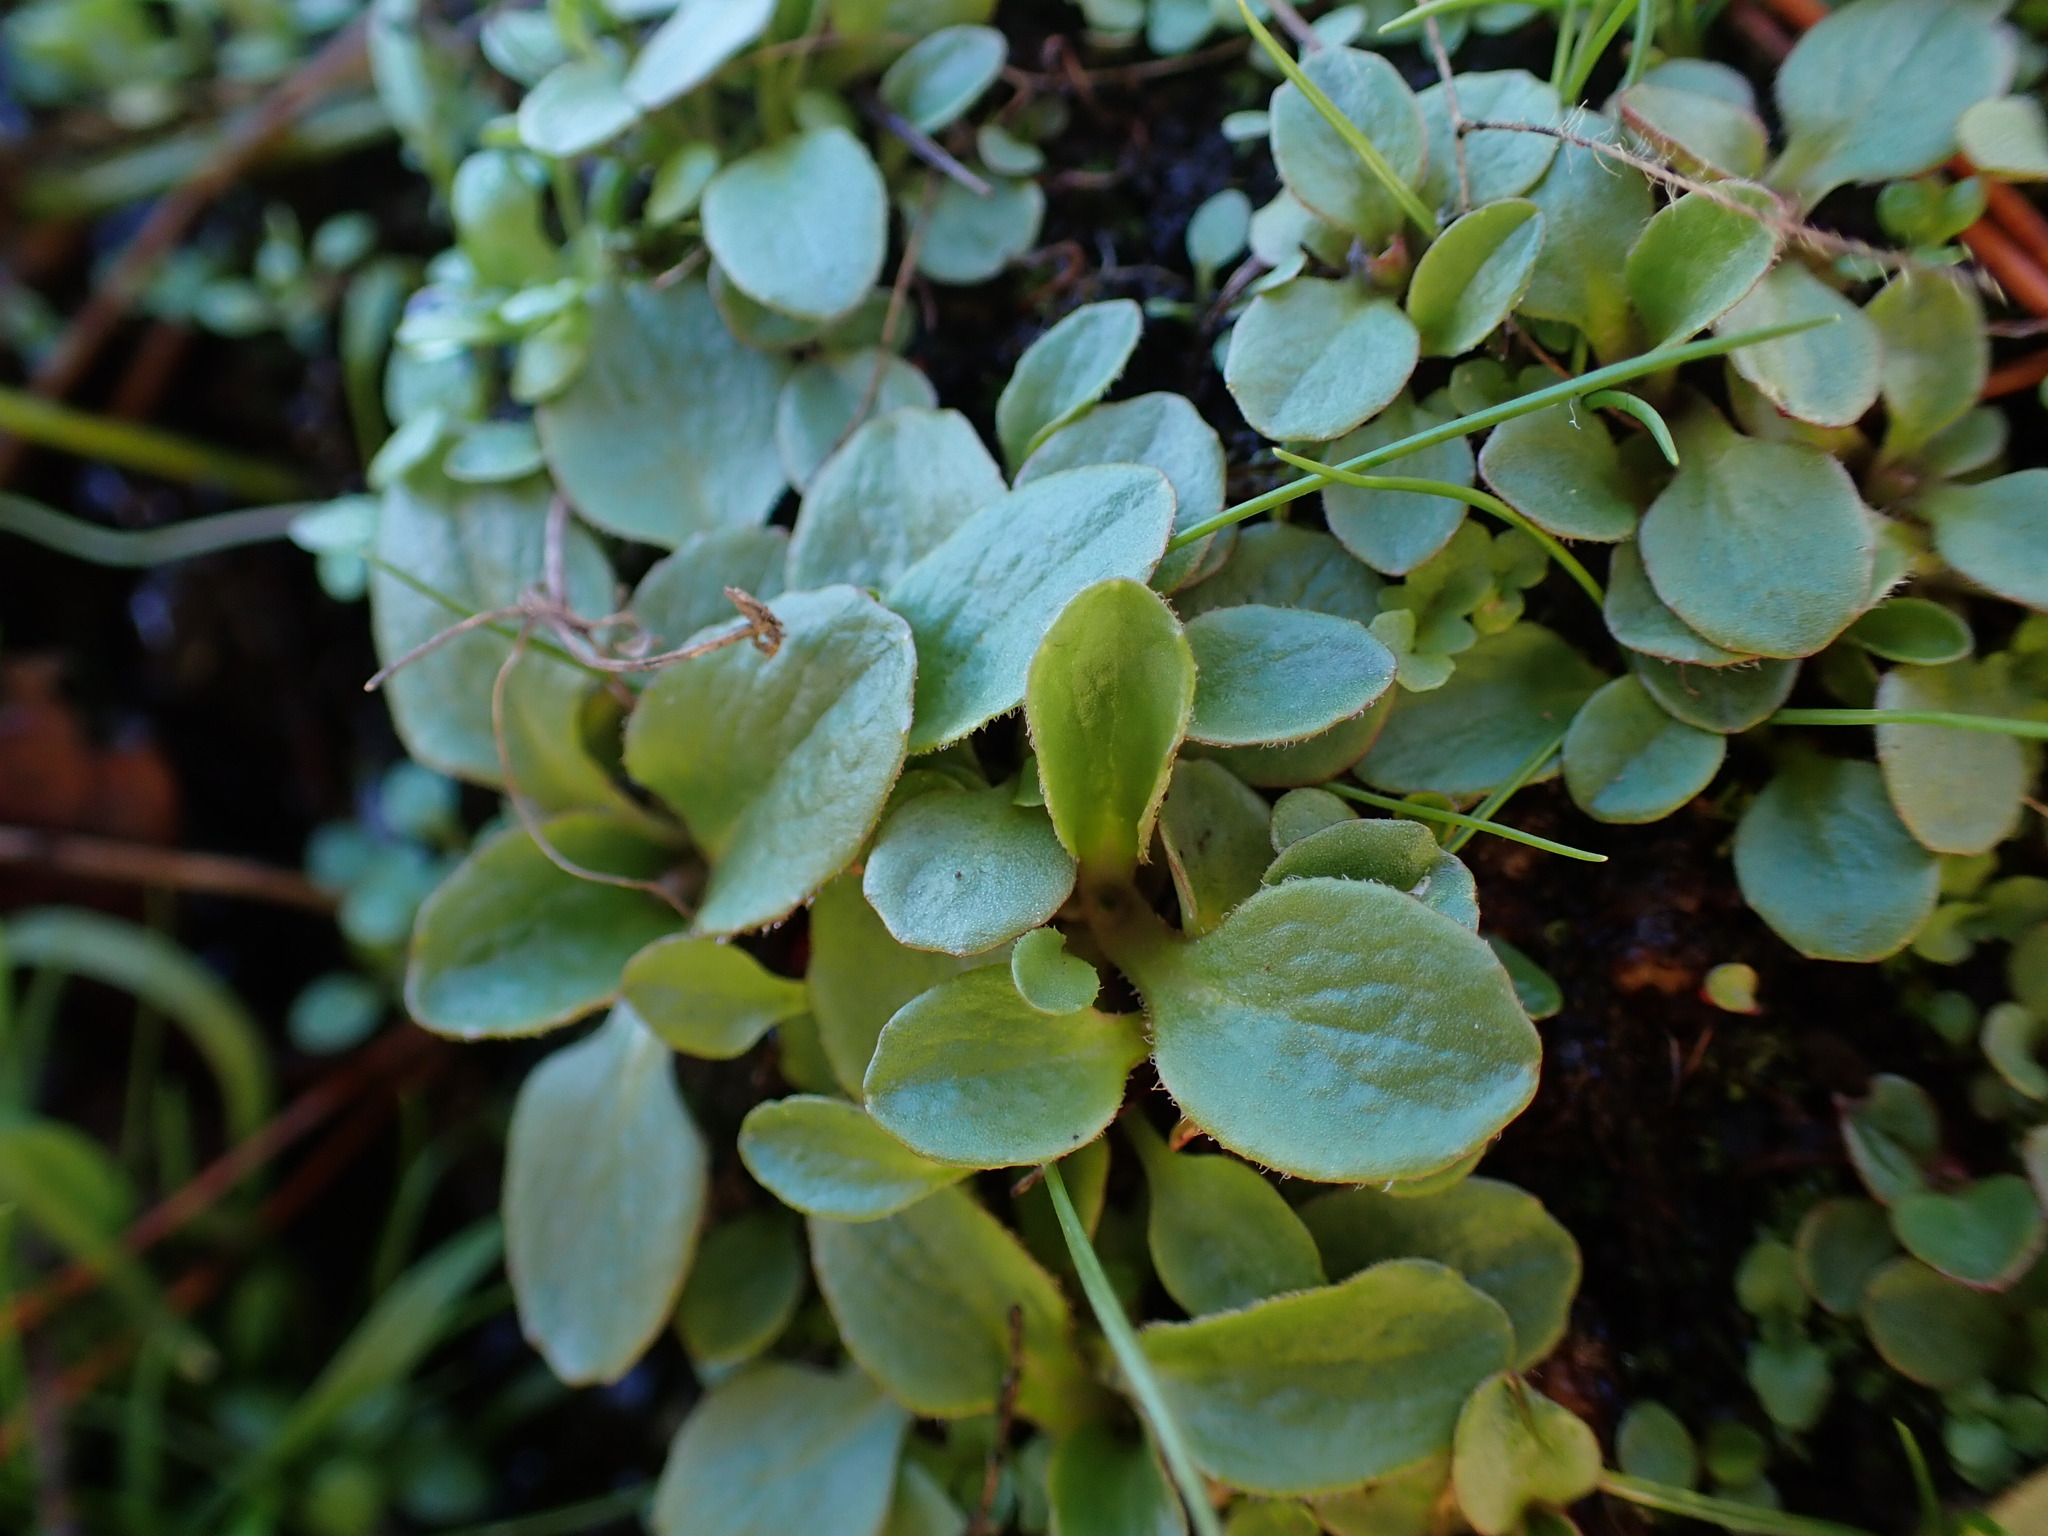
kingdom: Plantae
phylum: Tracheophyta
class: Magnoliopsida
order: Saxifragales
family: Saxifragaceae
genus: Micranthes
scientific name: Micranthes integrifolia
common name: Wholeleaf saxifrage
